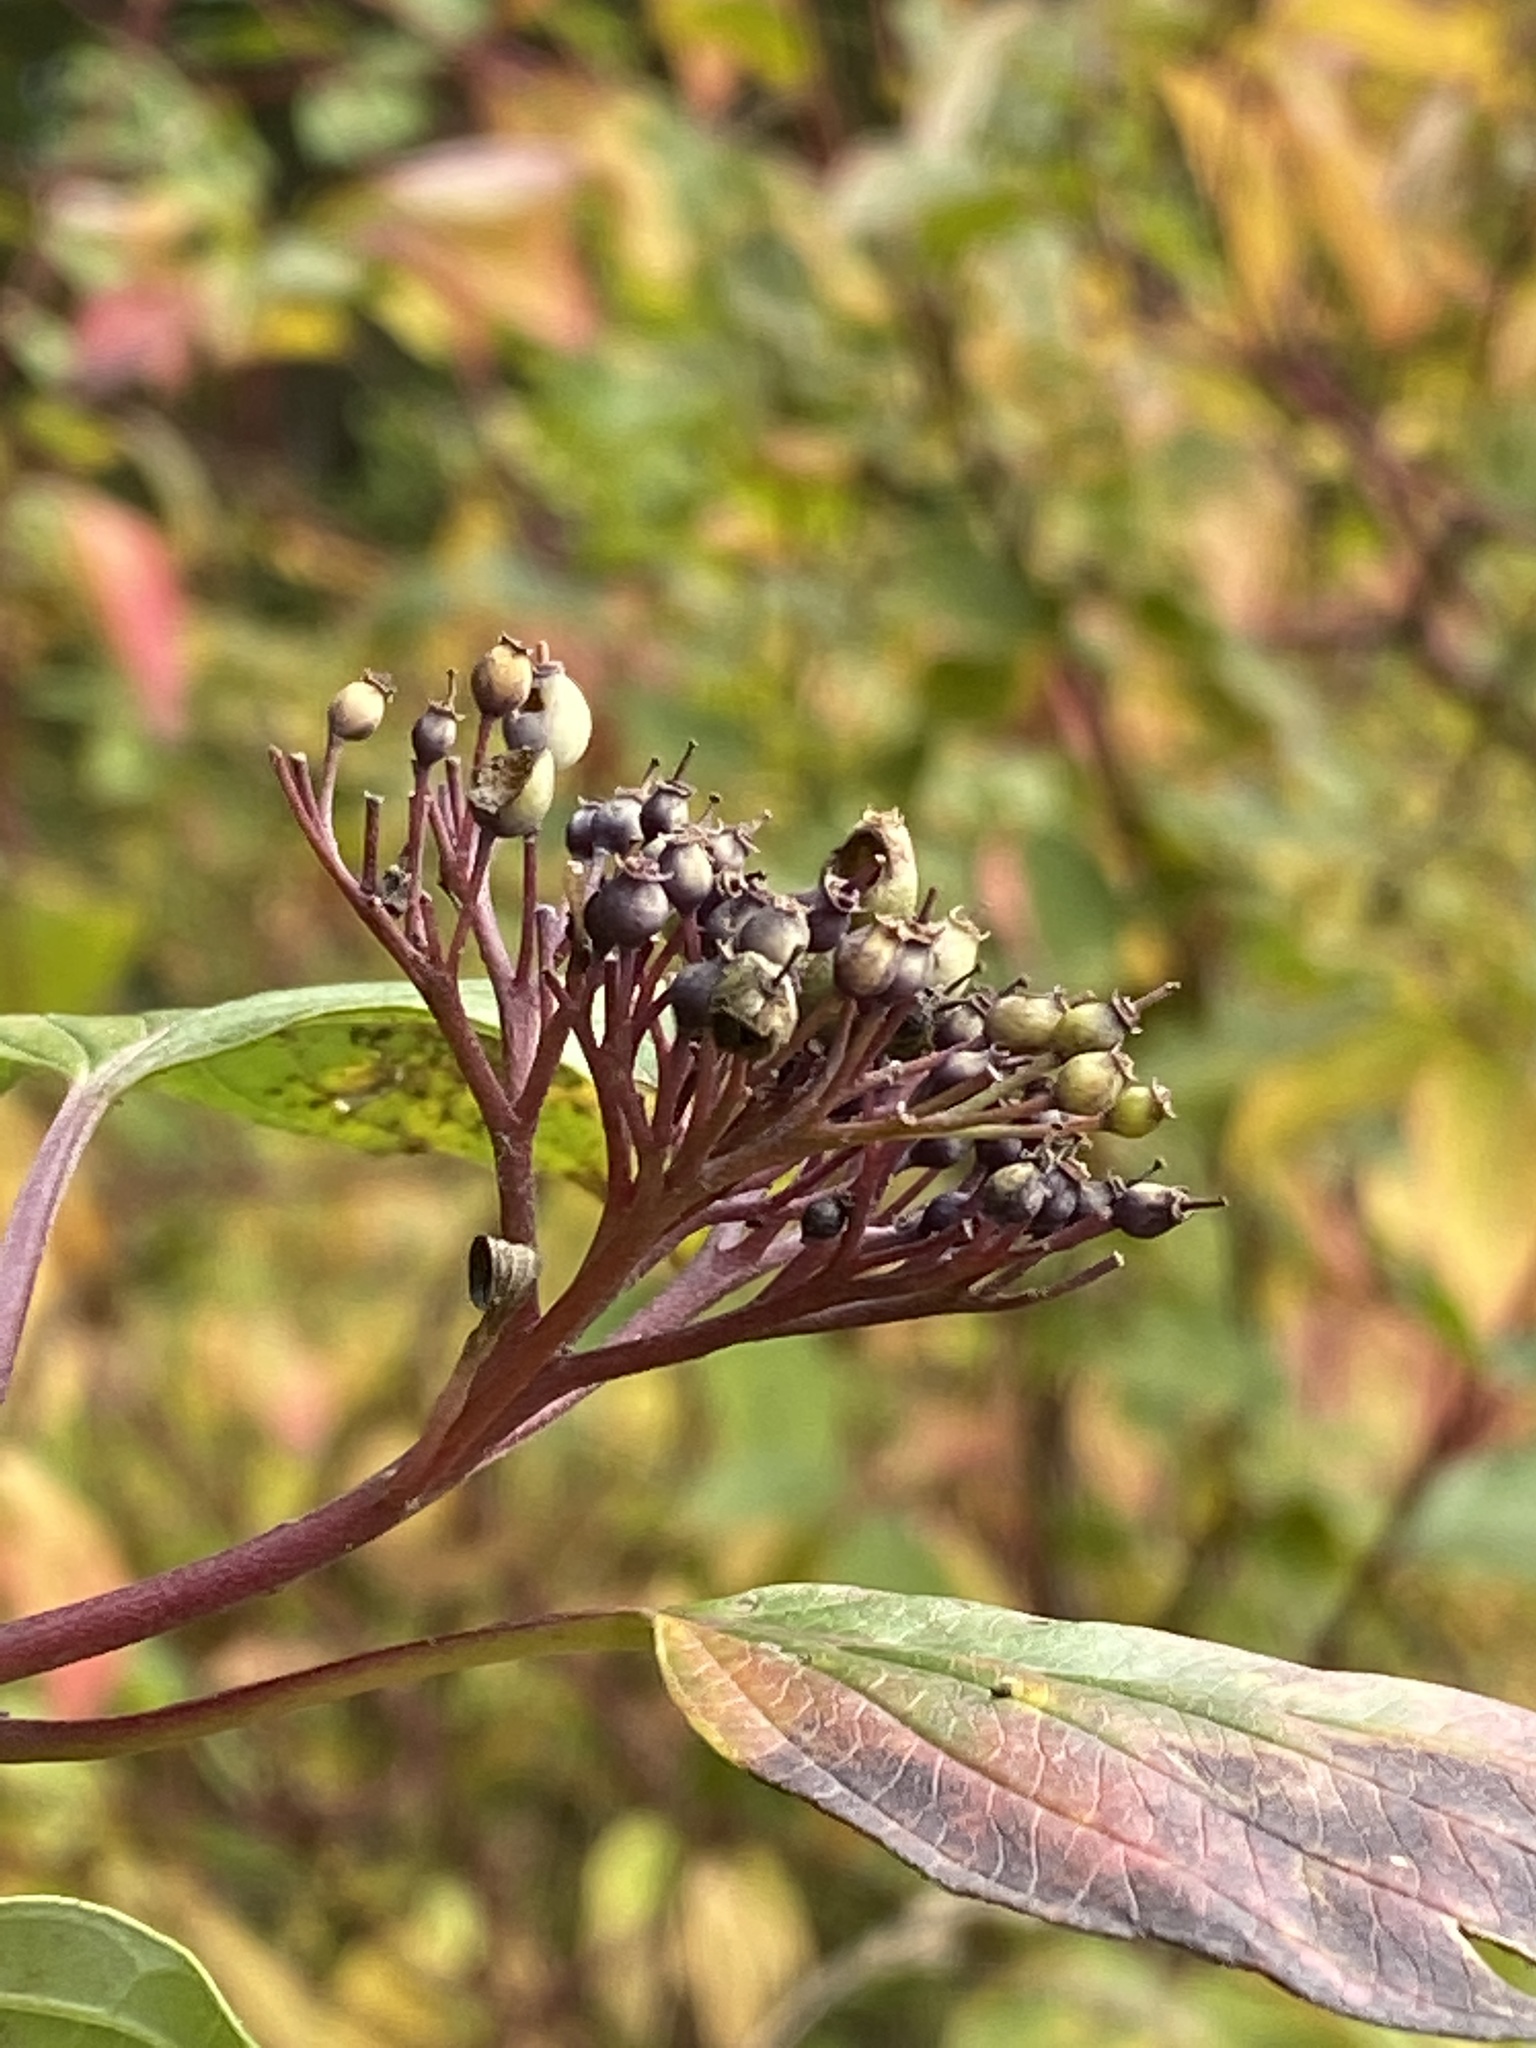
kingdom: Plantae
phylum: Tracheophyta
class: Magnoliopsida
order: Cornales
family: Cornaceae
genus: Cornus
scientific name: Cornus sericea
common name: Red-osier dogwood
